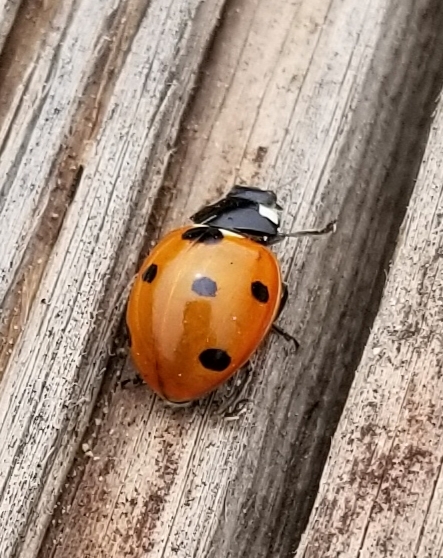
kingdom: Animalia
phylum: Arthropoda
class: Insecta
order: Coleoptera
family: Coccinellidae
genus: Coccinella
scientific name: Coccinella septempunctata
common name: Sevenspotted lady beetle
